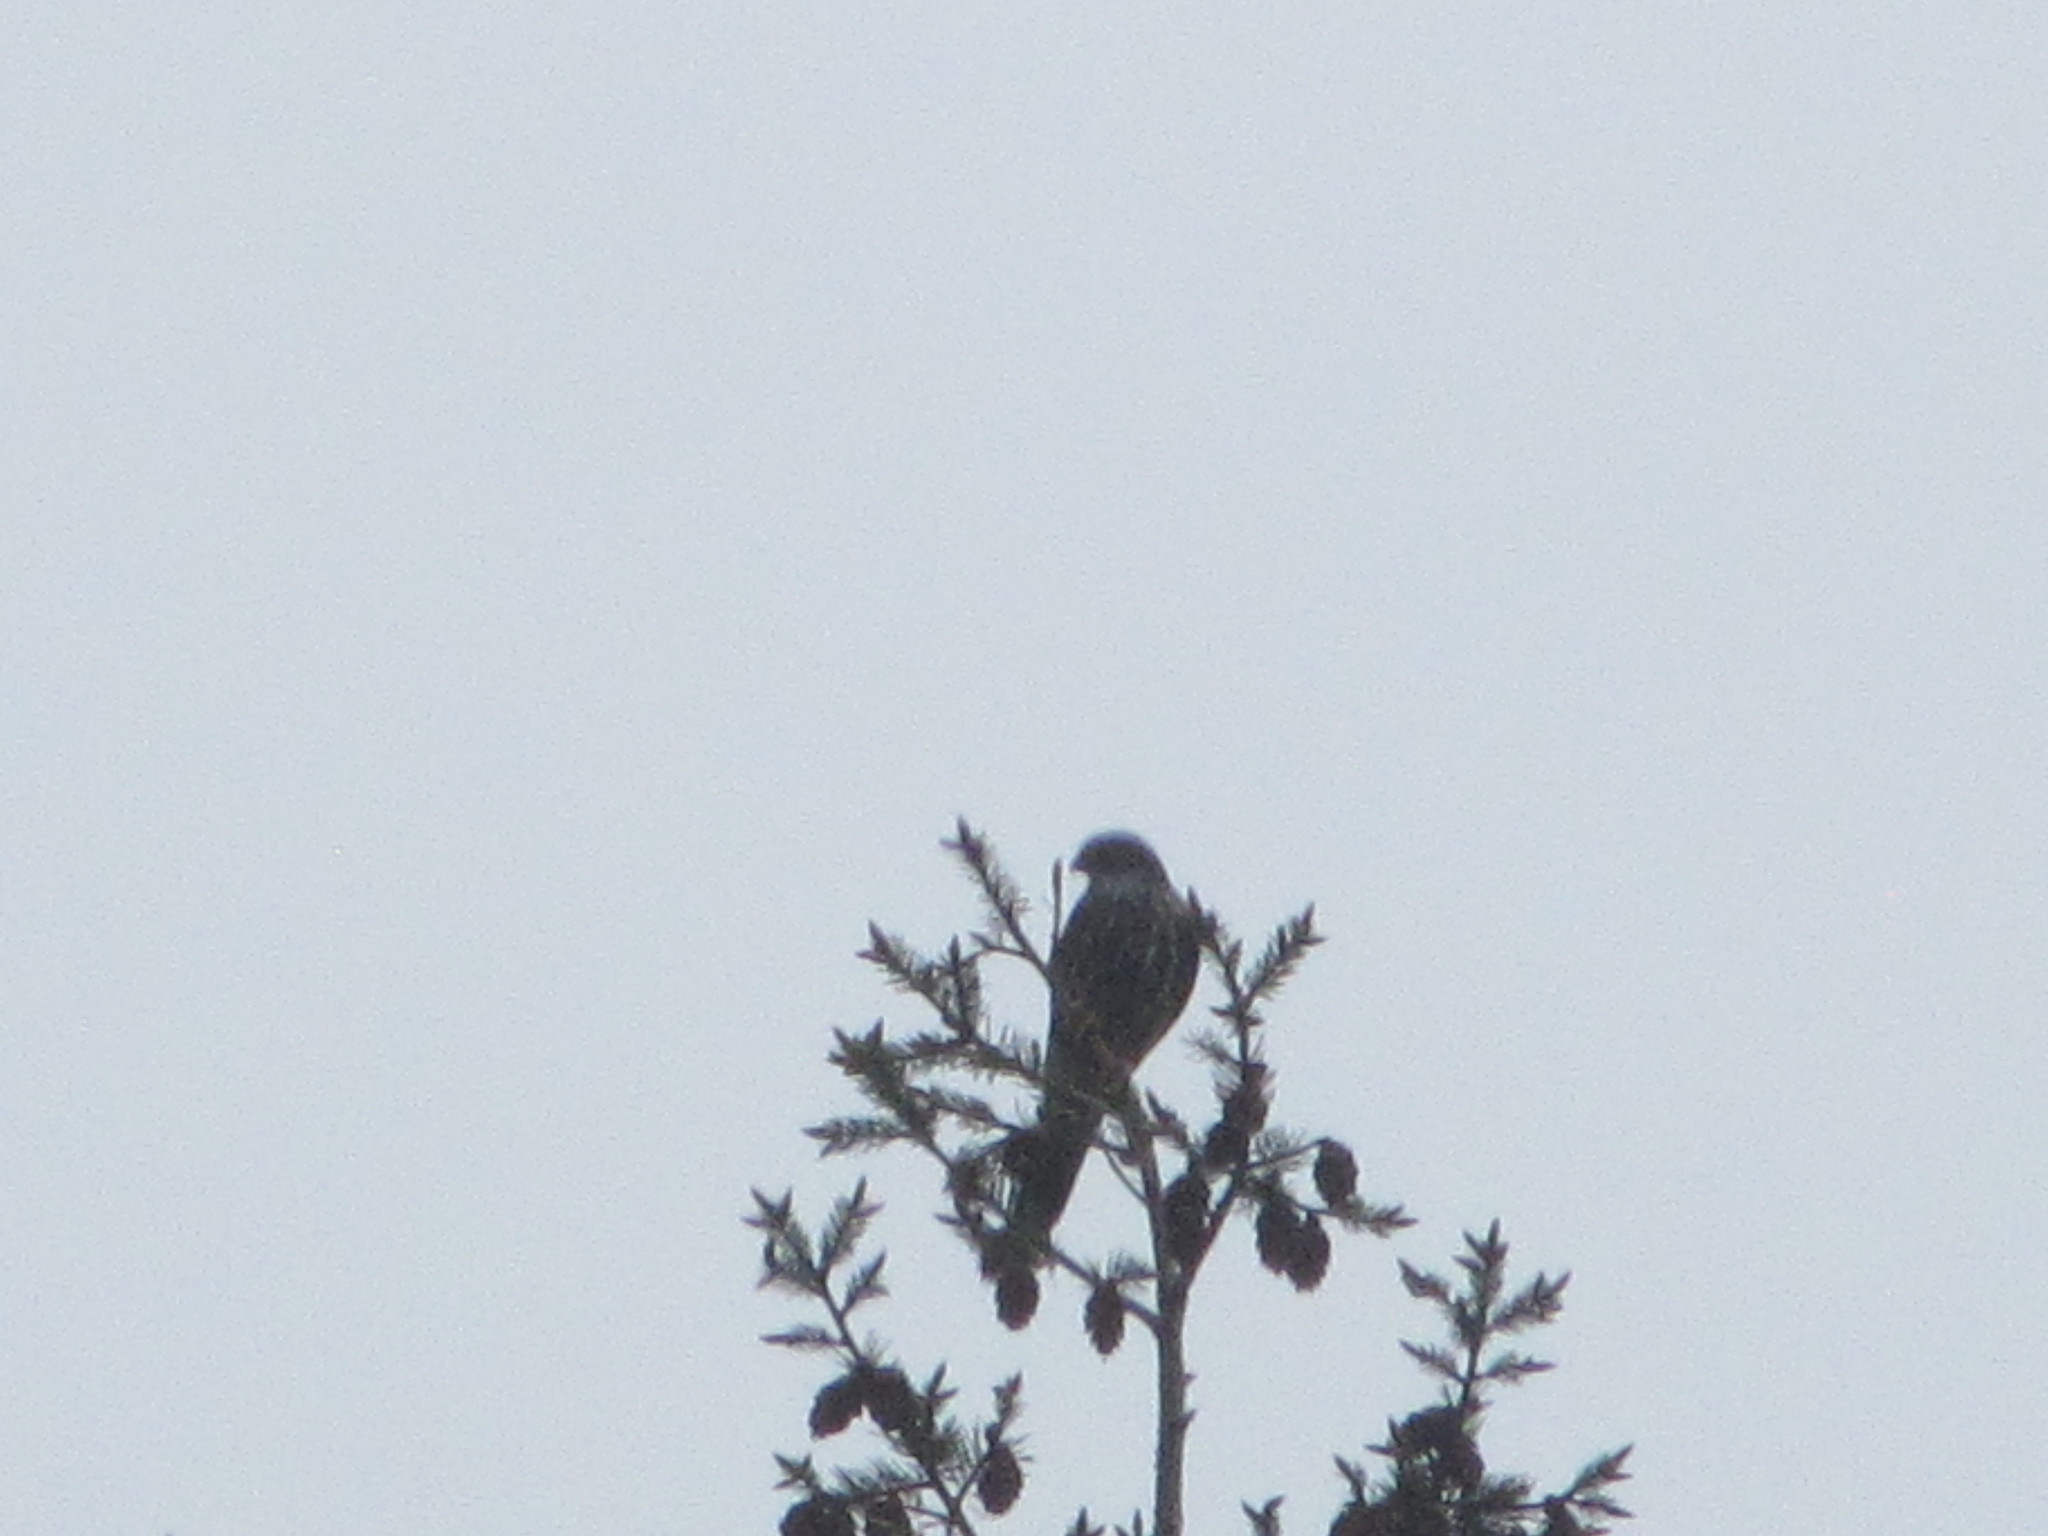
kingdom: Animalia
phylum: Chordata
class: Aves
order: Falconiformes
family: Falconidae
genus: Falco
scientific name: Falco columbarius
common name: Merlin
